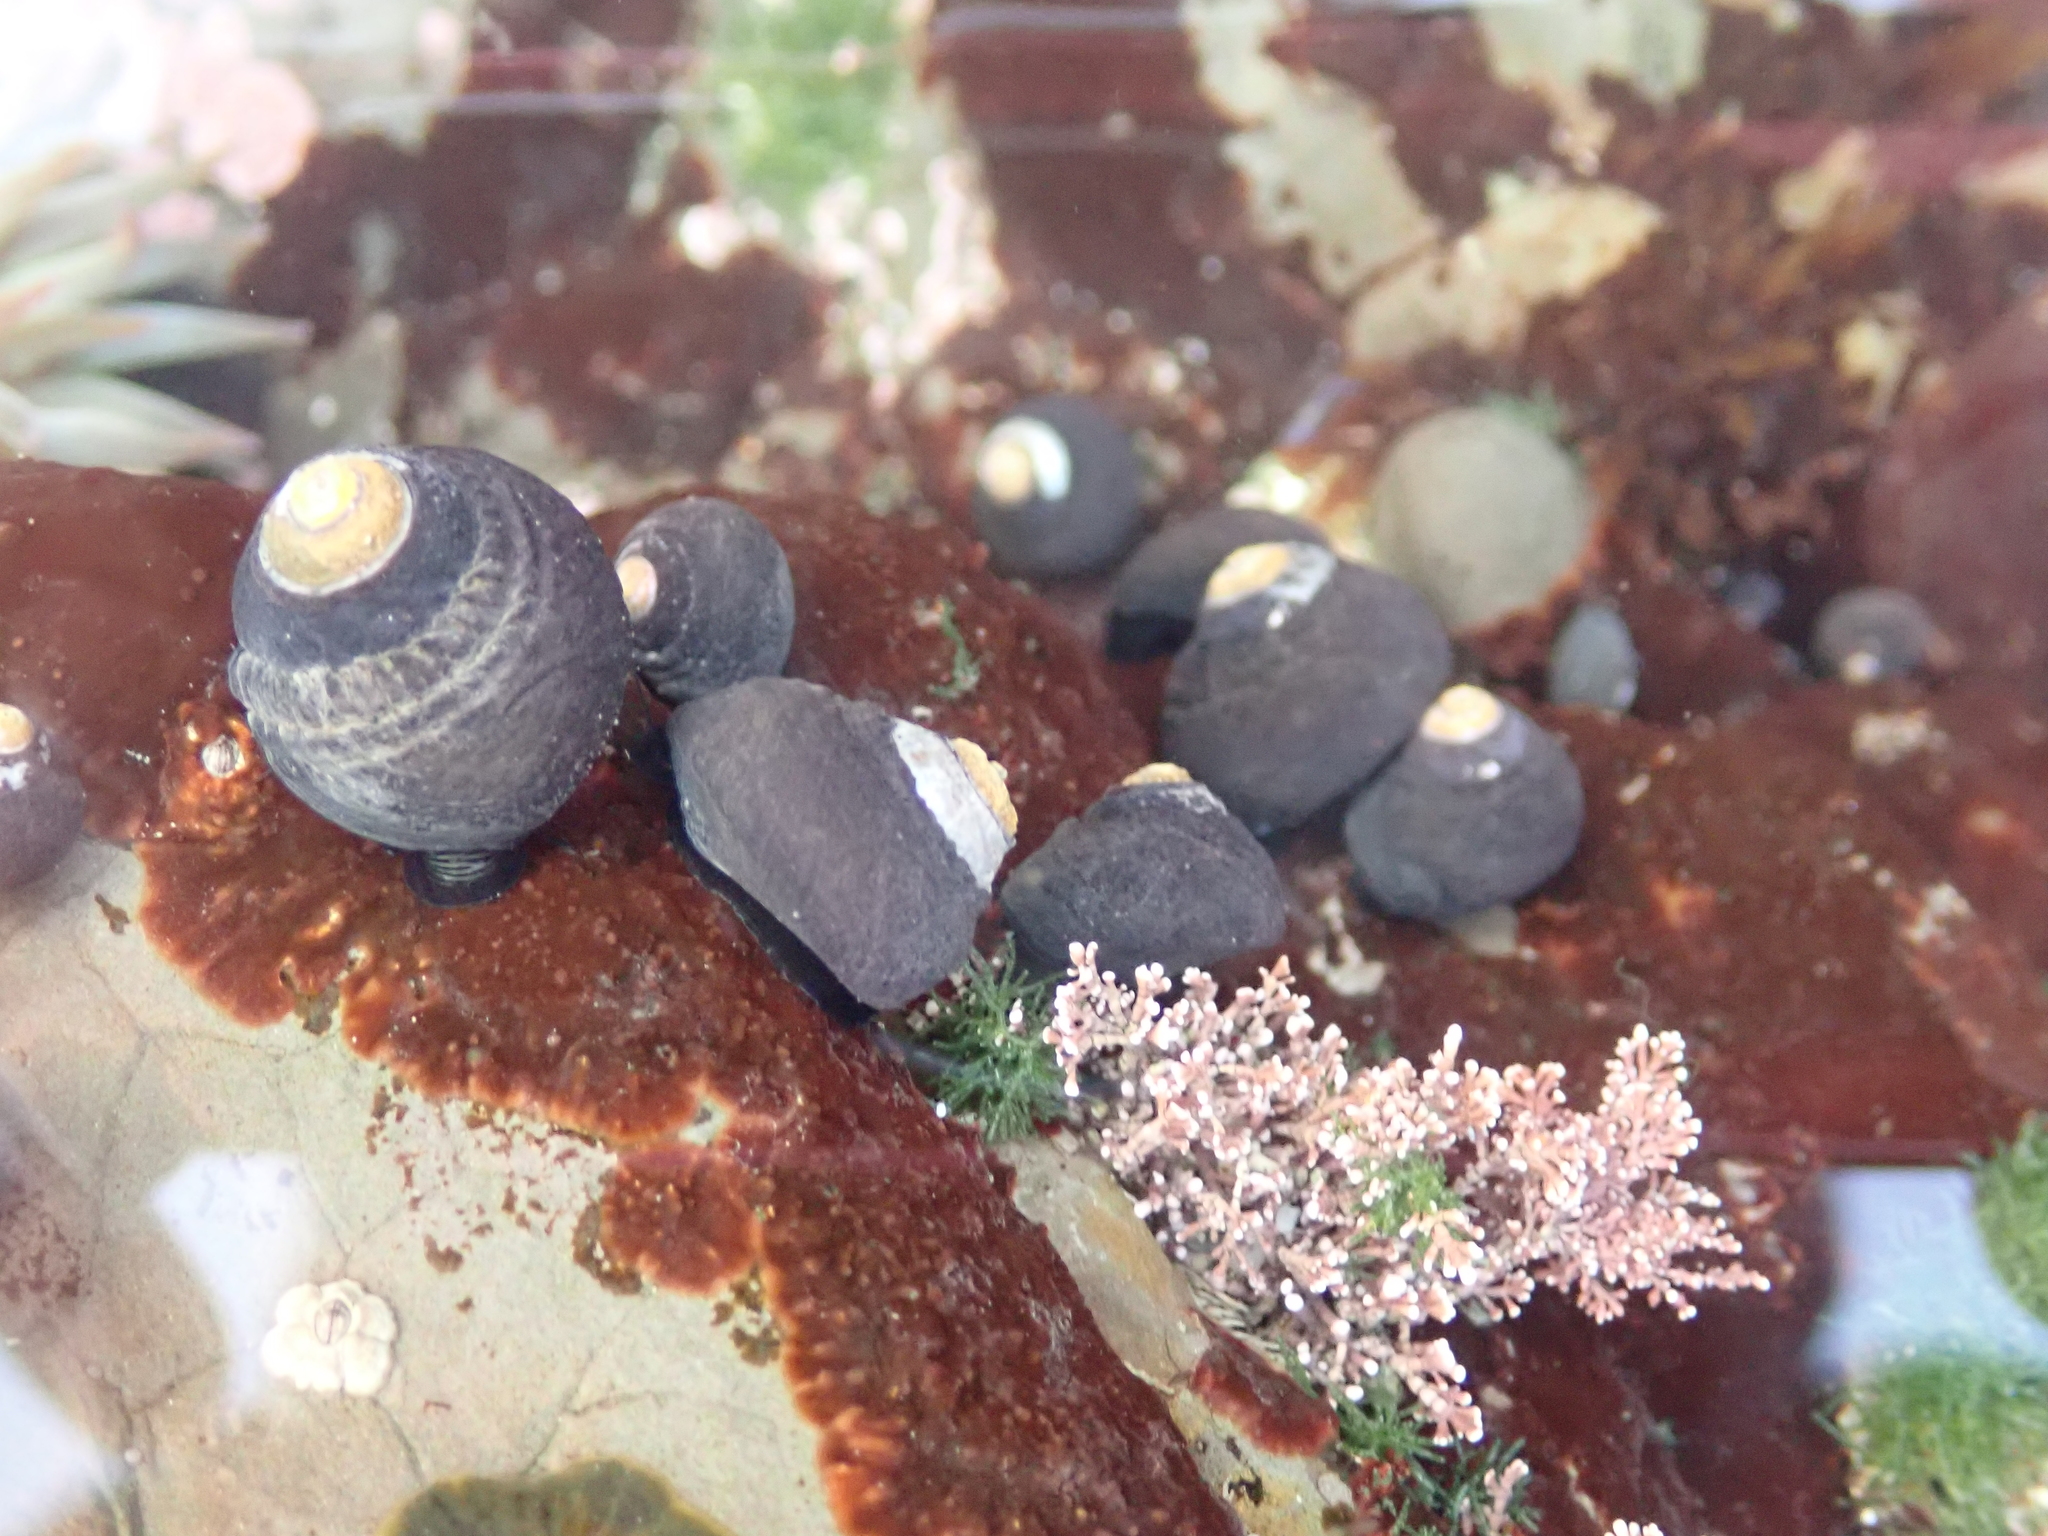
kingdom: Animalia
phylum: Mollusca
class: Gastropoda
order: Trochida
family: Tegulidae
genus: Tegula
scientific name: Tegula funebralis
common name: Black tegula
